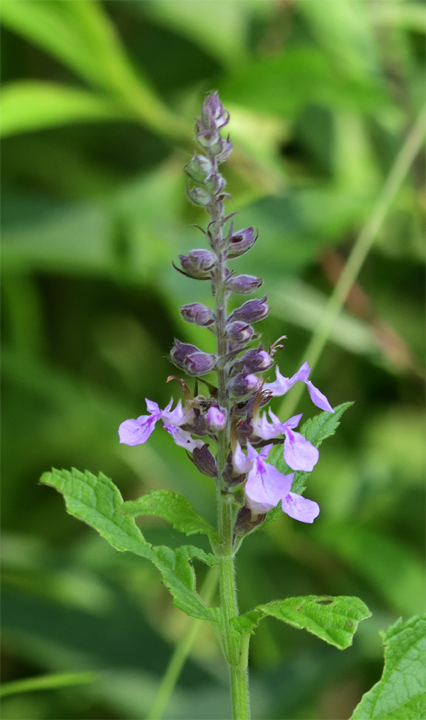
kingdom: Plantae
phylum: Tracheophyta
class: Magnoliopsida
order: Lamiales
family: Lamiaceae
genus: Teucrium
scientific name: Teucrium canadense
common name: American germander
